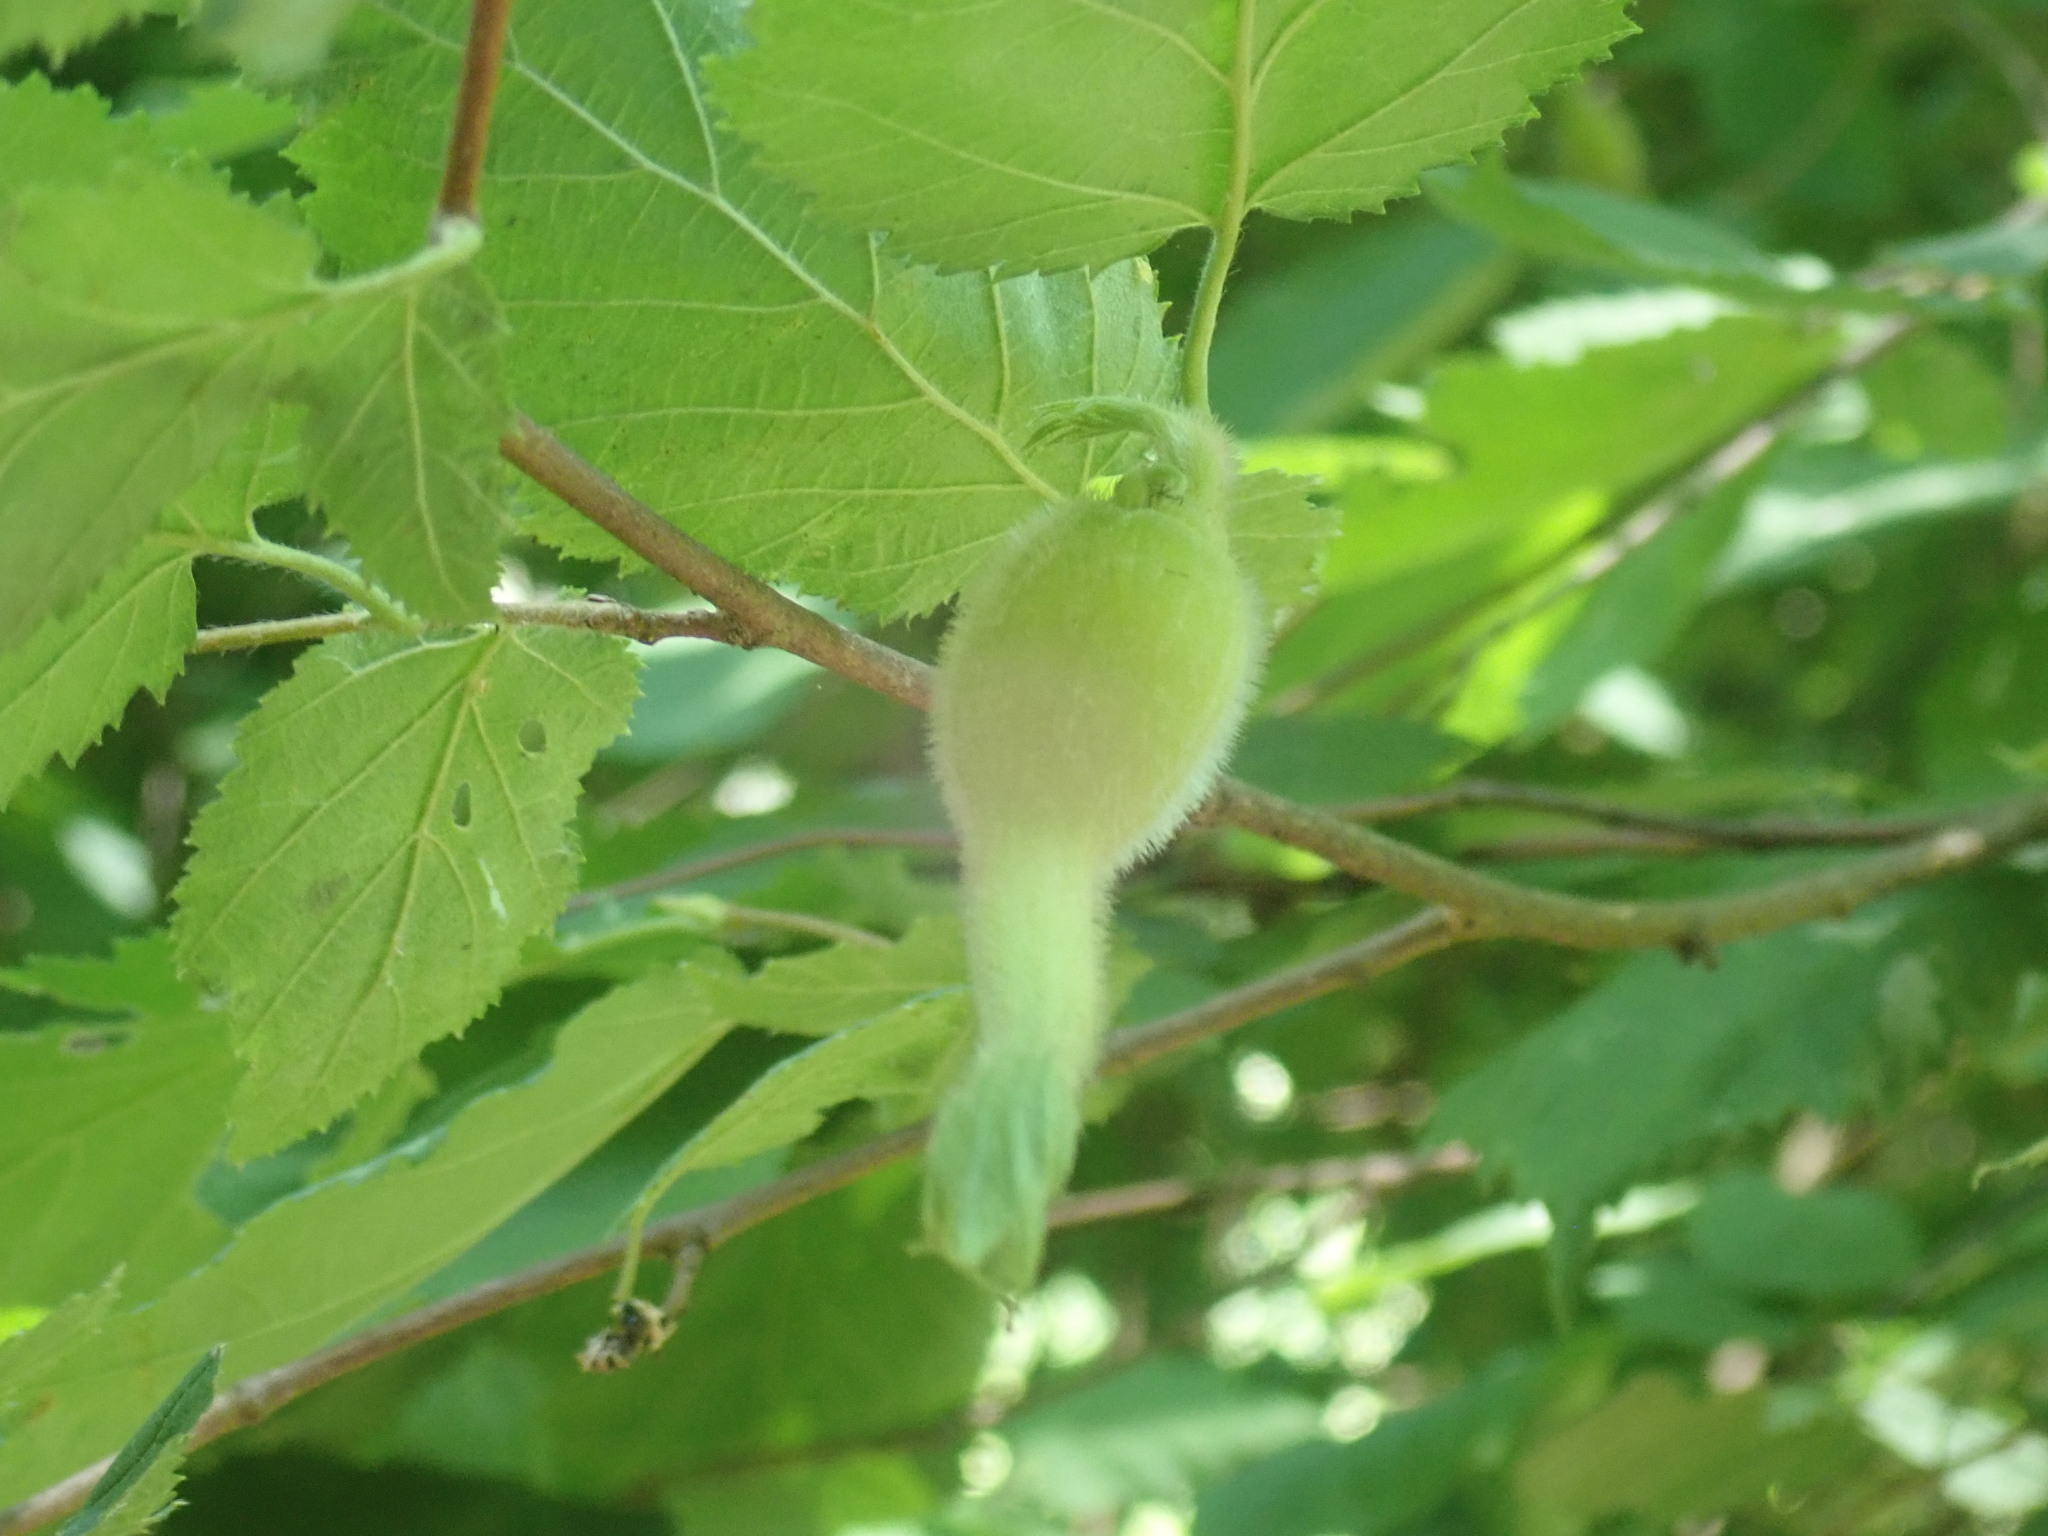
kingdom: Plantae
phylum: Tracheophyta
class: Magnoliopsida
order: Fagales
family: Betulaceae
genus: Corylus
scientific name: Corylus cornuta
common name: Beaked hazel
